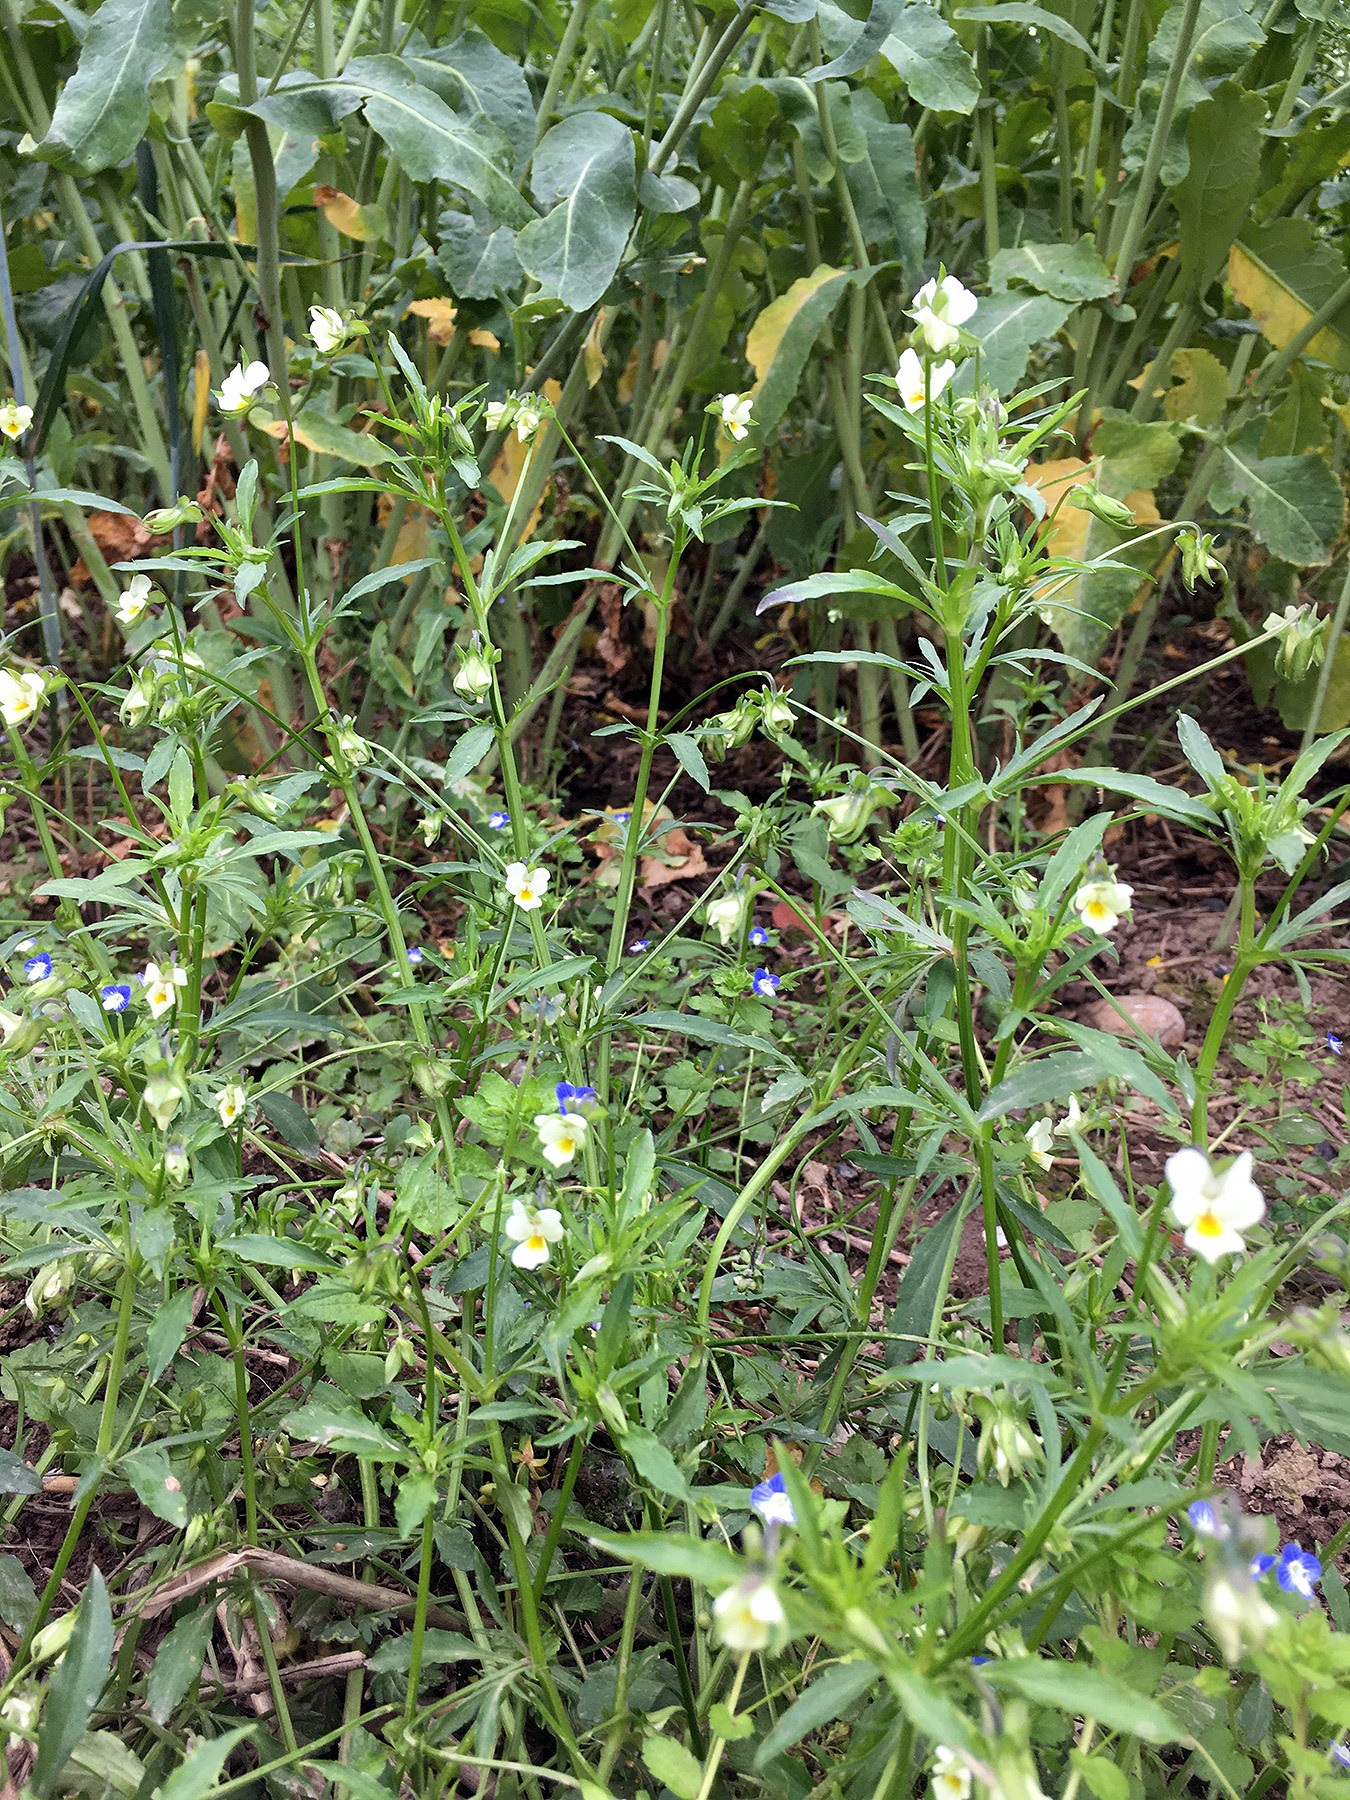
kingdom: Plantae
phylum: Tracheophyta
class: Magnoliopsida
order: Malpighiales
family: Violaceae
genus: Viola
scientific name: Viola arvensis
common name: Field pansy
